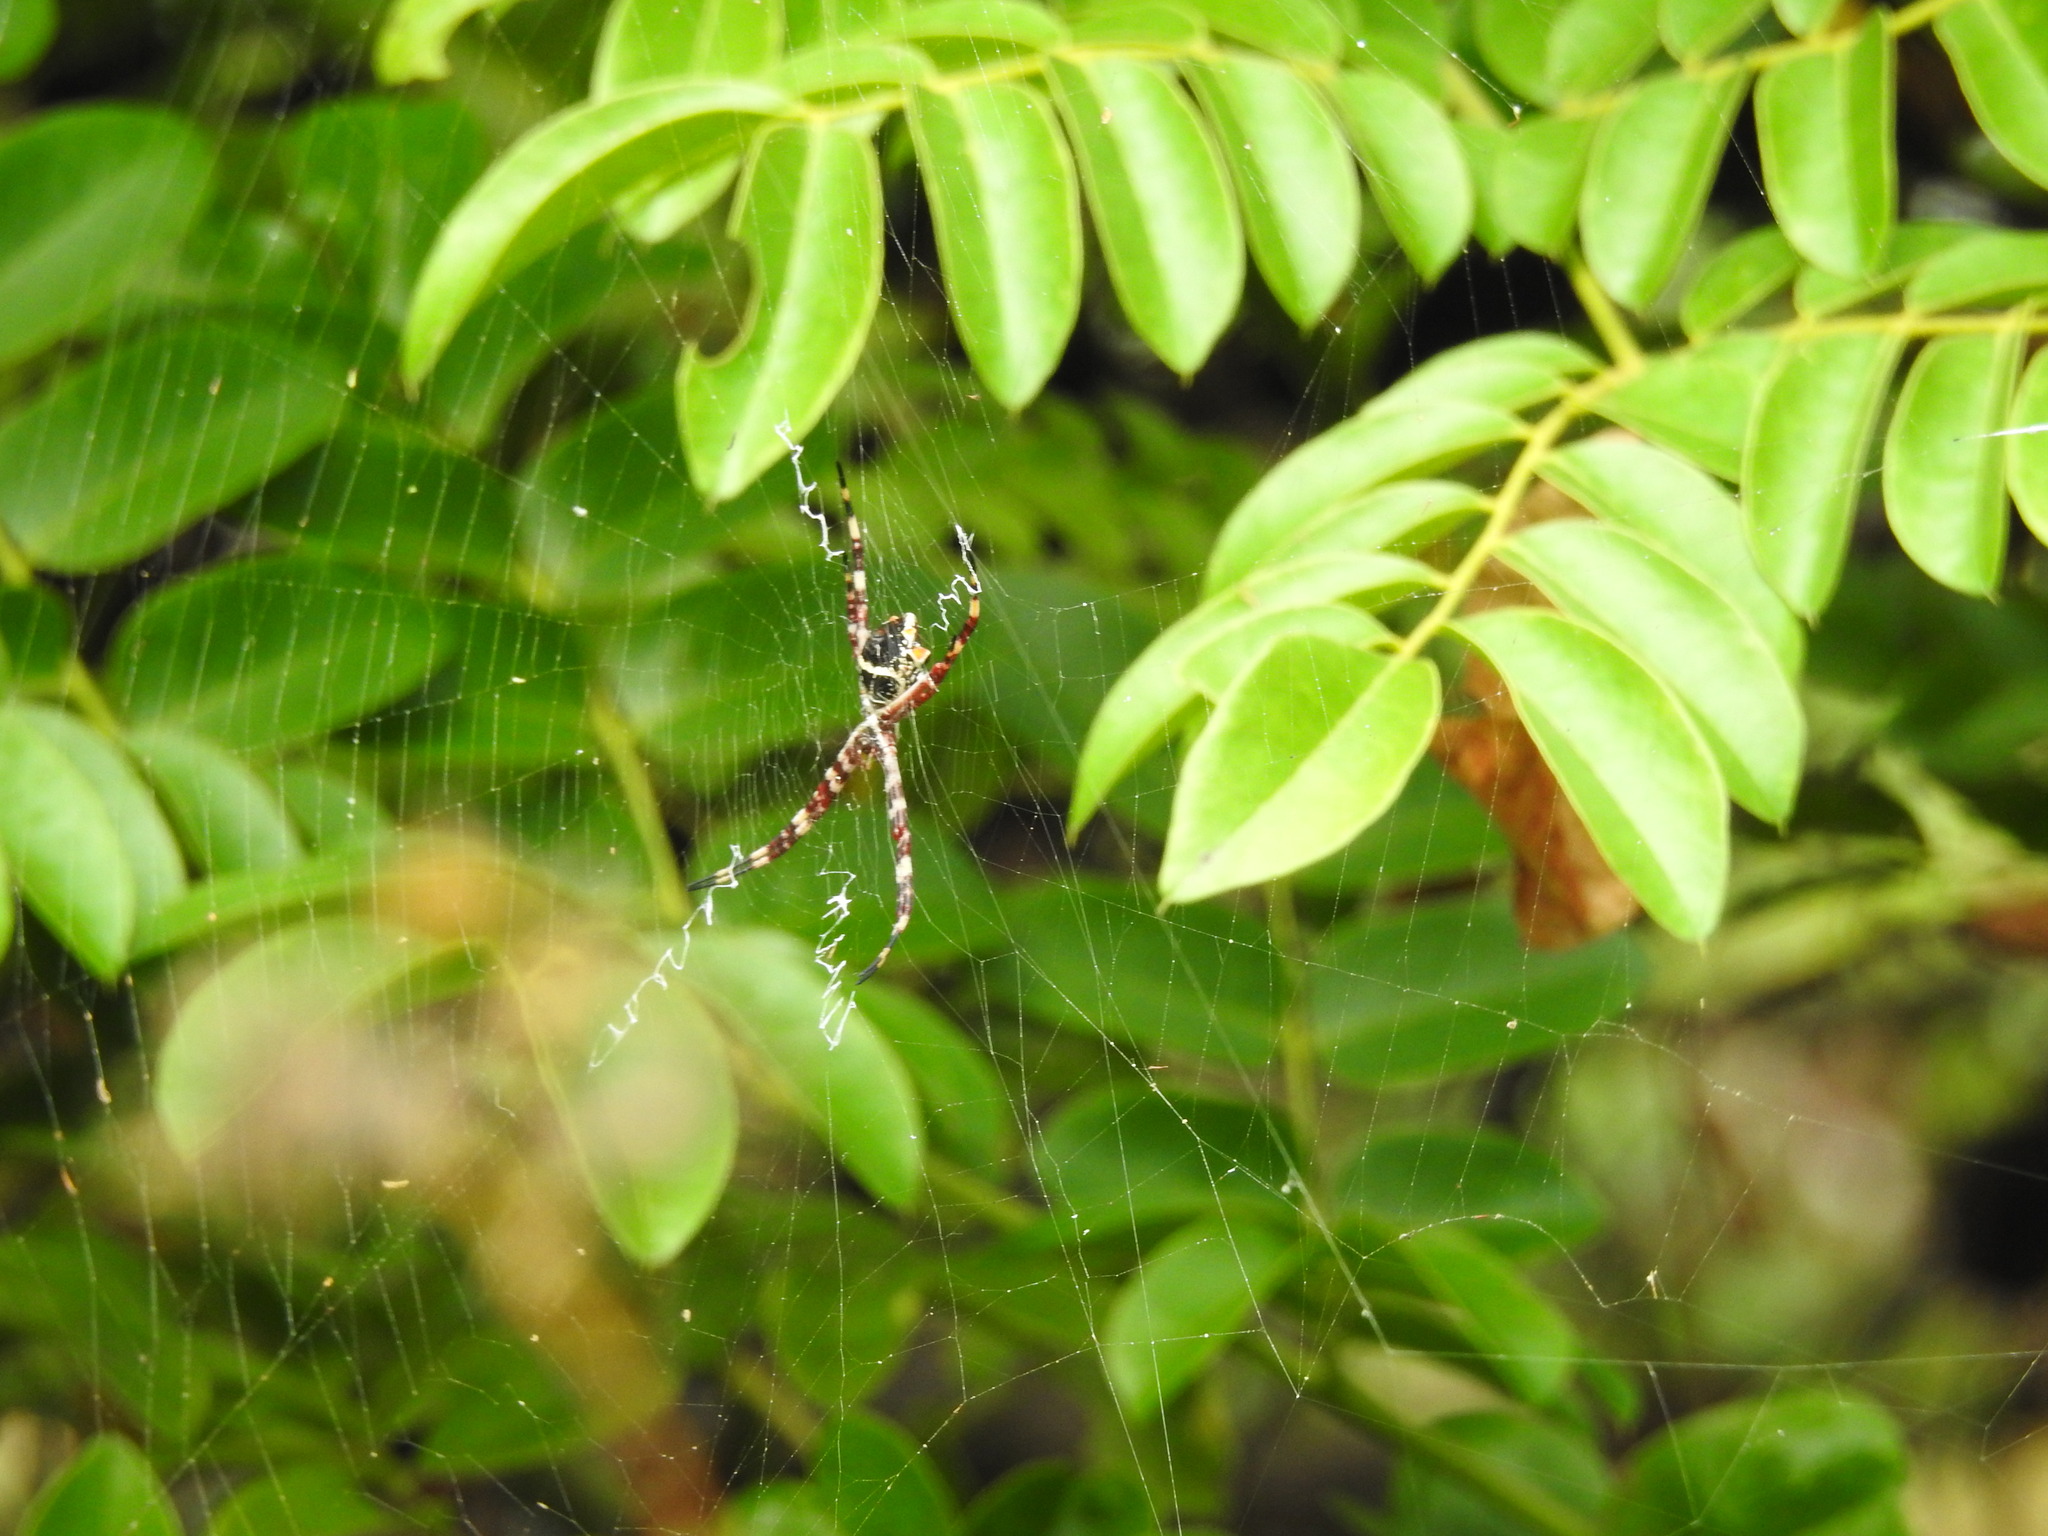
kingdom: Animalia
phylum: Arthropoda
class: Arachnida
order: Araneae
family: Araneidae
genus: Argiope
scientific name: Argiope argentata
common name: Orb weavers
